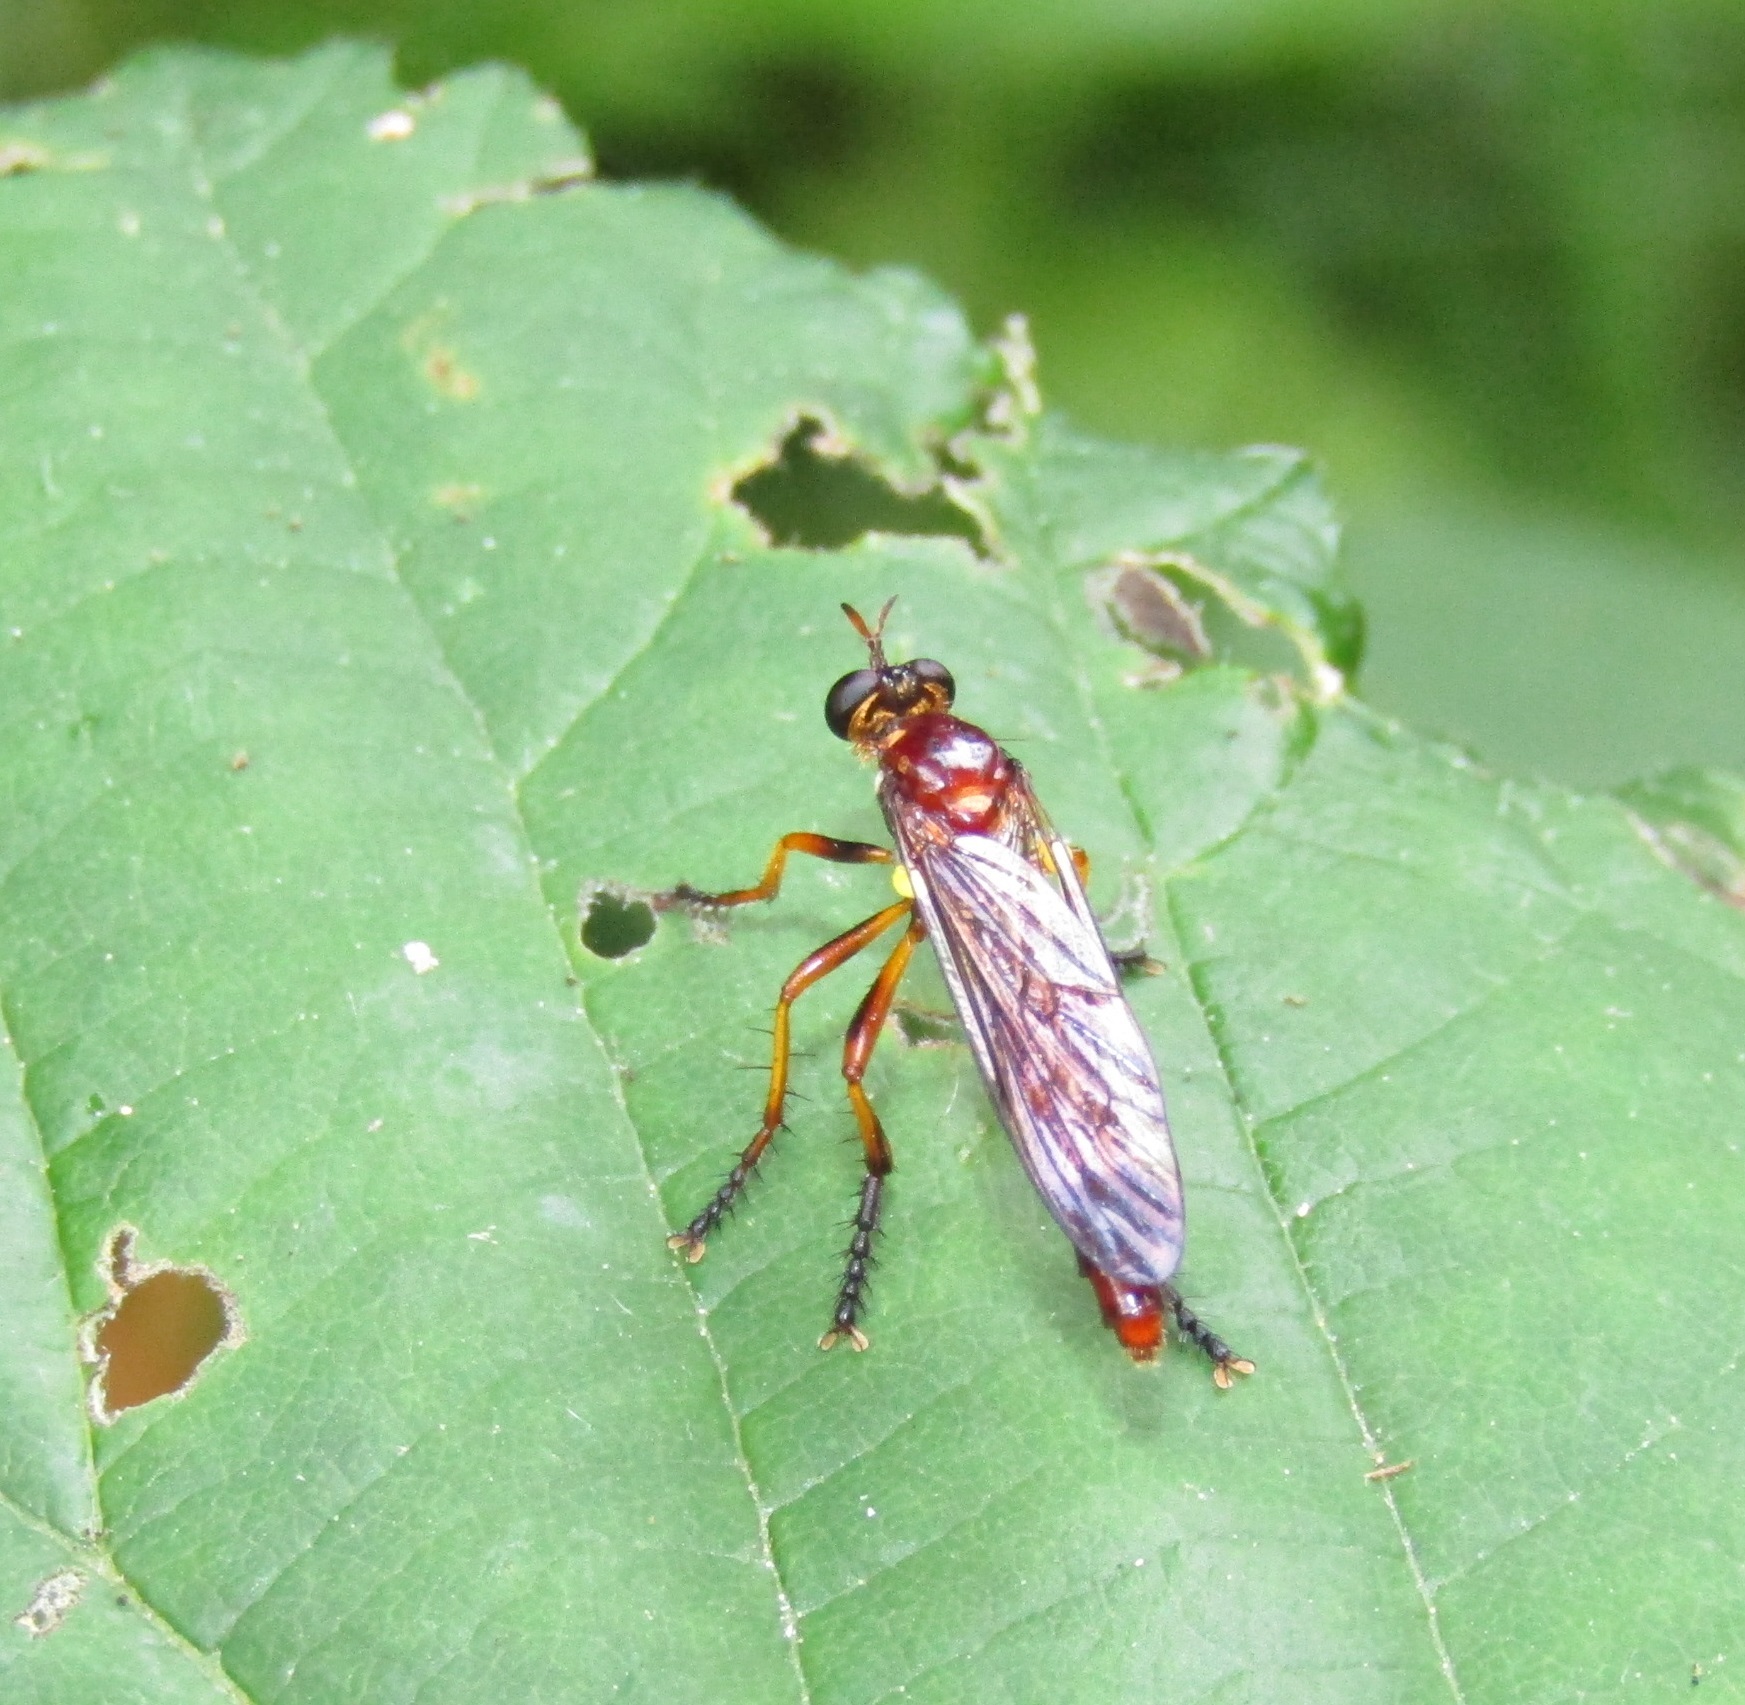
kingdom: Animalia
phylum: Arthropoda
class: Insecta
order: Diptera
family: Asilidae
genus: Saropogon
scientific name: Saropogon antipodus
